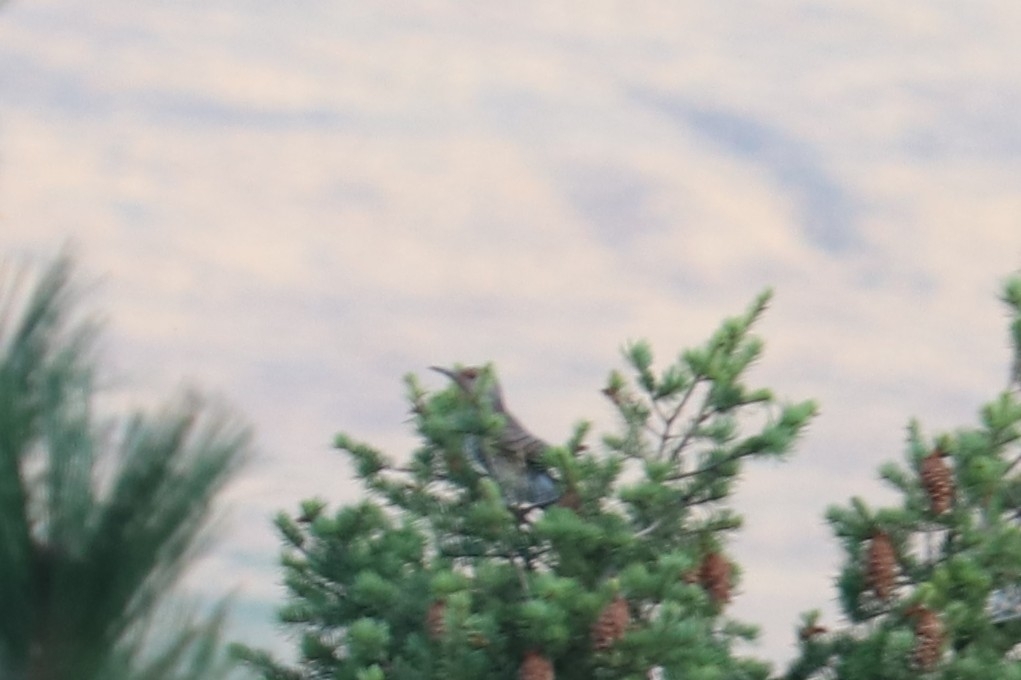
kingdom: Animalia
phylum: Chordata
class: Aves
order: Piciformes
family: Picidae
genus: Colaptes
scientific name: Colaptes auratus
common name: Northern flicker
